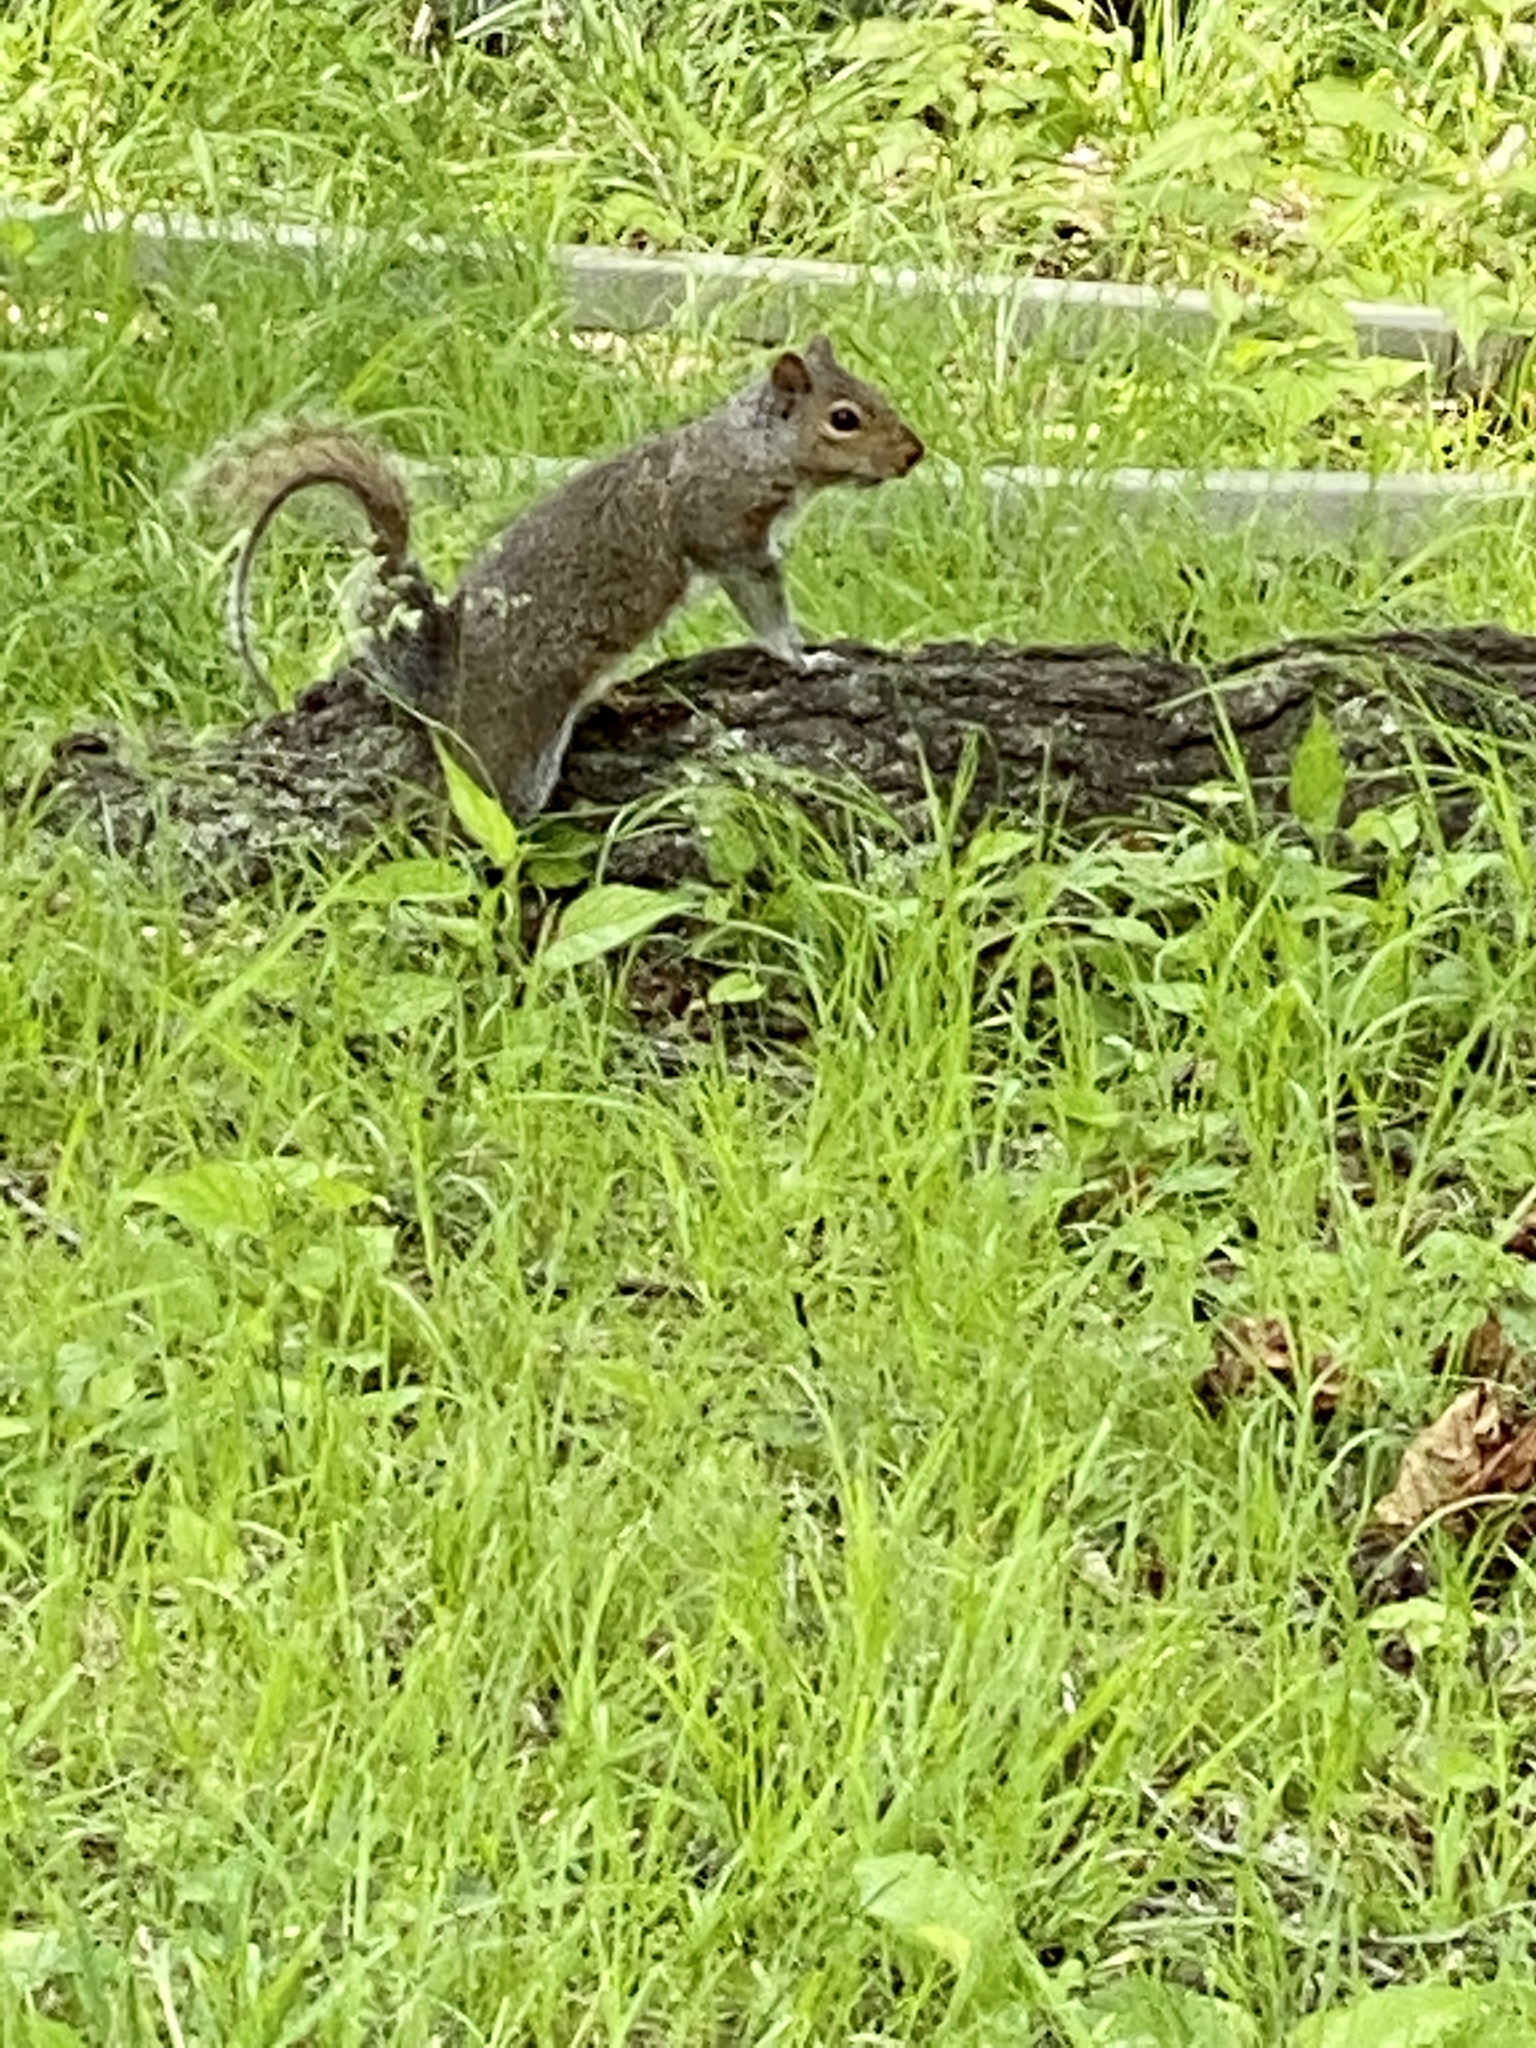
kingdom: Animalia
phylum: Chordata
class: Mammalia
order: Rodentia
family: Sciuridae
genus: Sciurus
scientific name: Sciurus carolinensis
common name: Eastern gray squirrel
